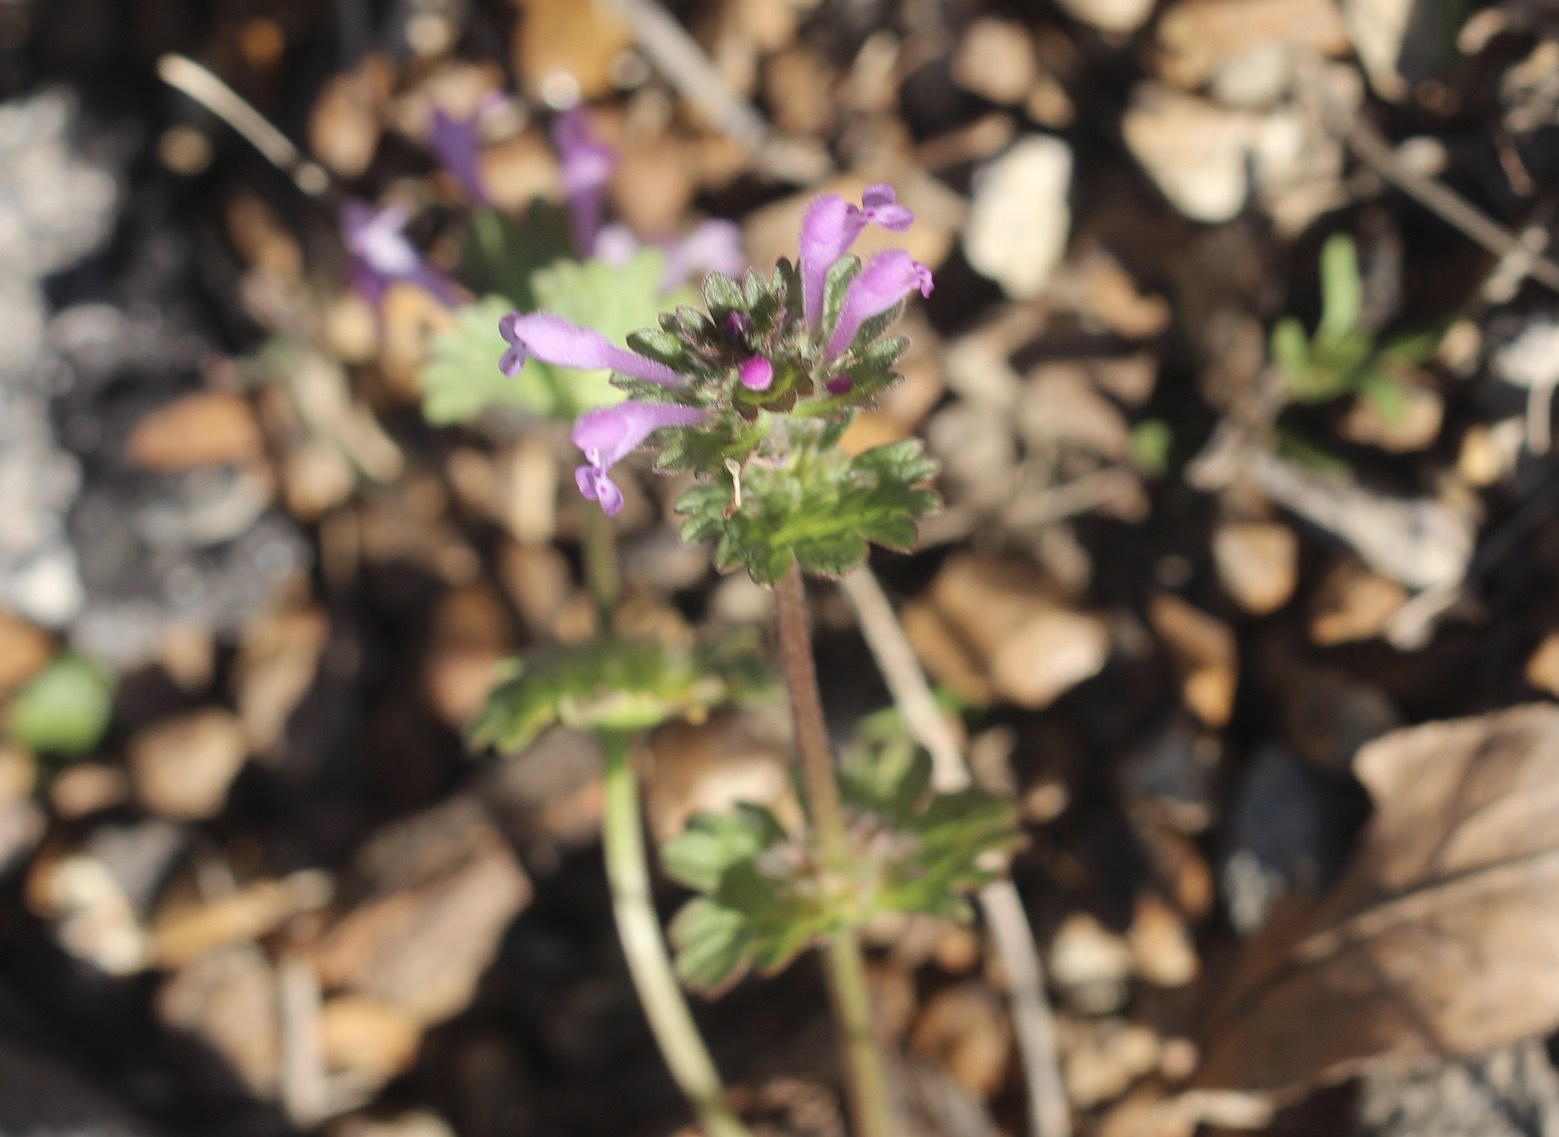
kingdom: Plantae
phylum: Tracheophyta
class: Magnoliopsida
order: Lamiales
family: Lamiaceae
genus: Lamium
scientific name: Lamium amplexicaule
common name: Henbit dead-nettle
